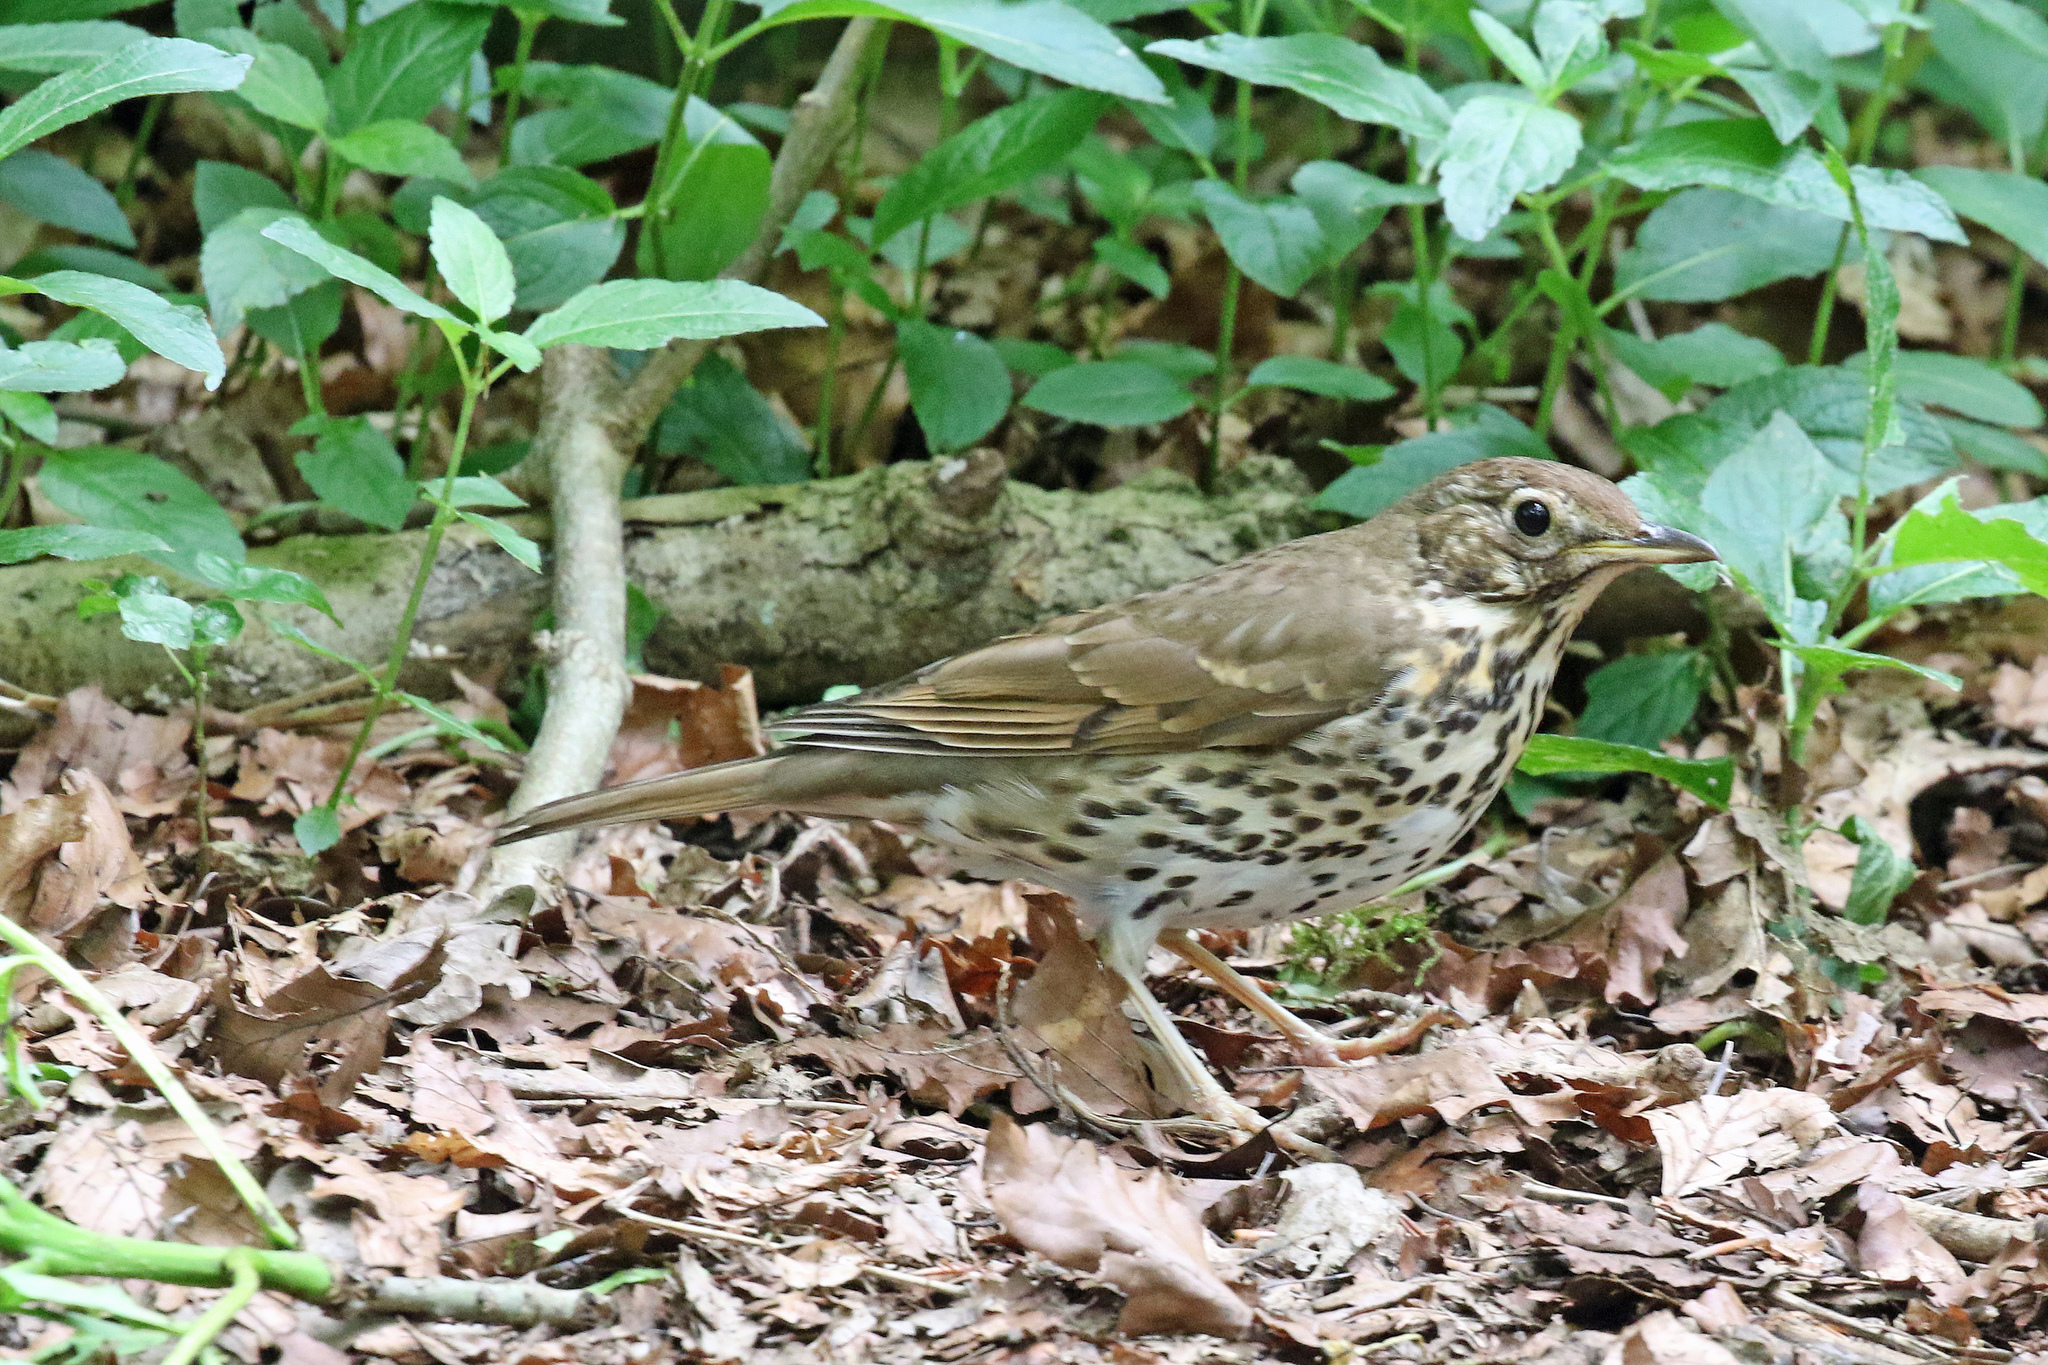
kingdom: Animalia
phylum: Chordata
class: Aves
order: Passeriformes
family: Turdidae
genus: Turdus
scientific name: Turdus philomelos
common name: Song thrush
